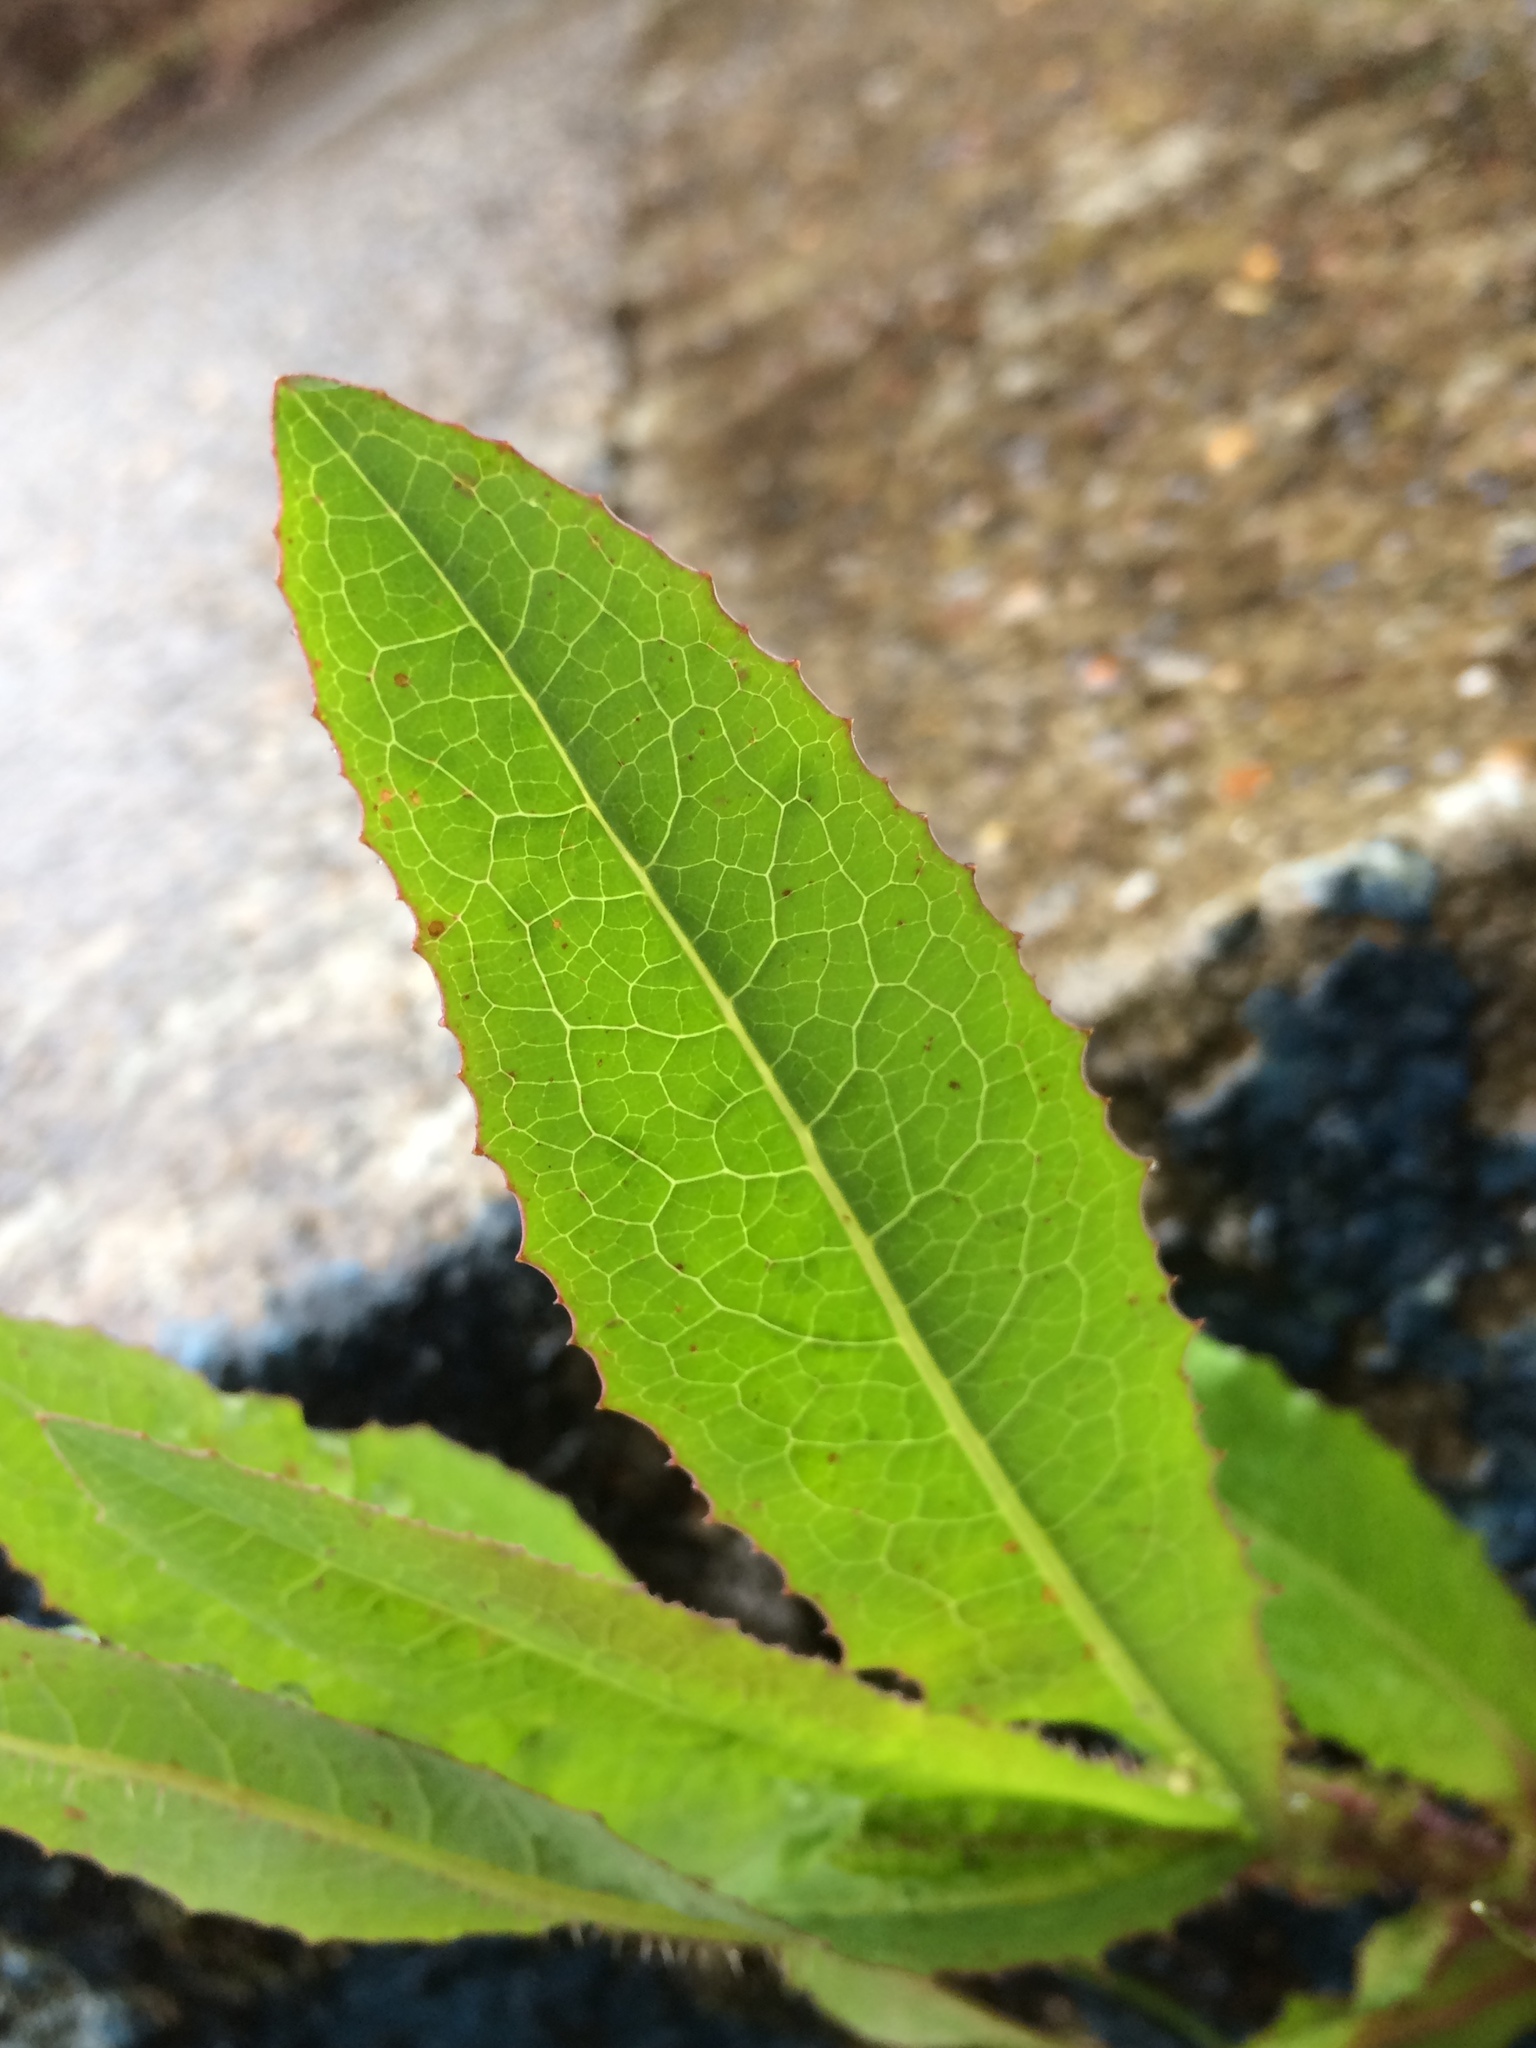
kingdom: Plantae
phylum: Tracheophyta
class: Magnoliopsida
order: Asterales
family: Asteraceae
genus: Lactuca
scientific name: Lactuca serriola
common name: Prickly lettuce
